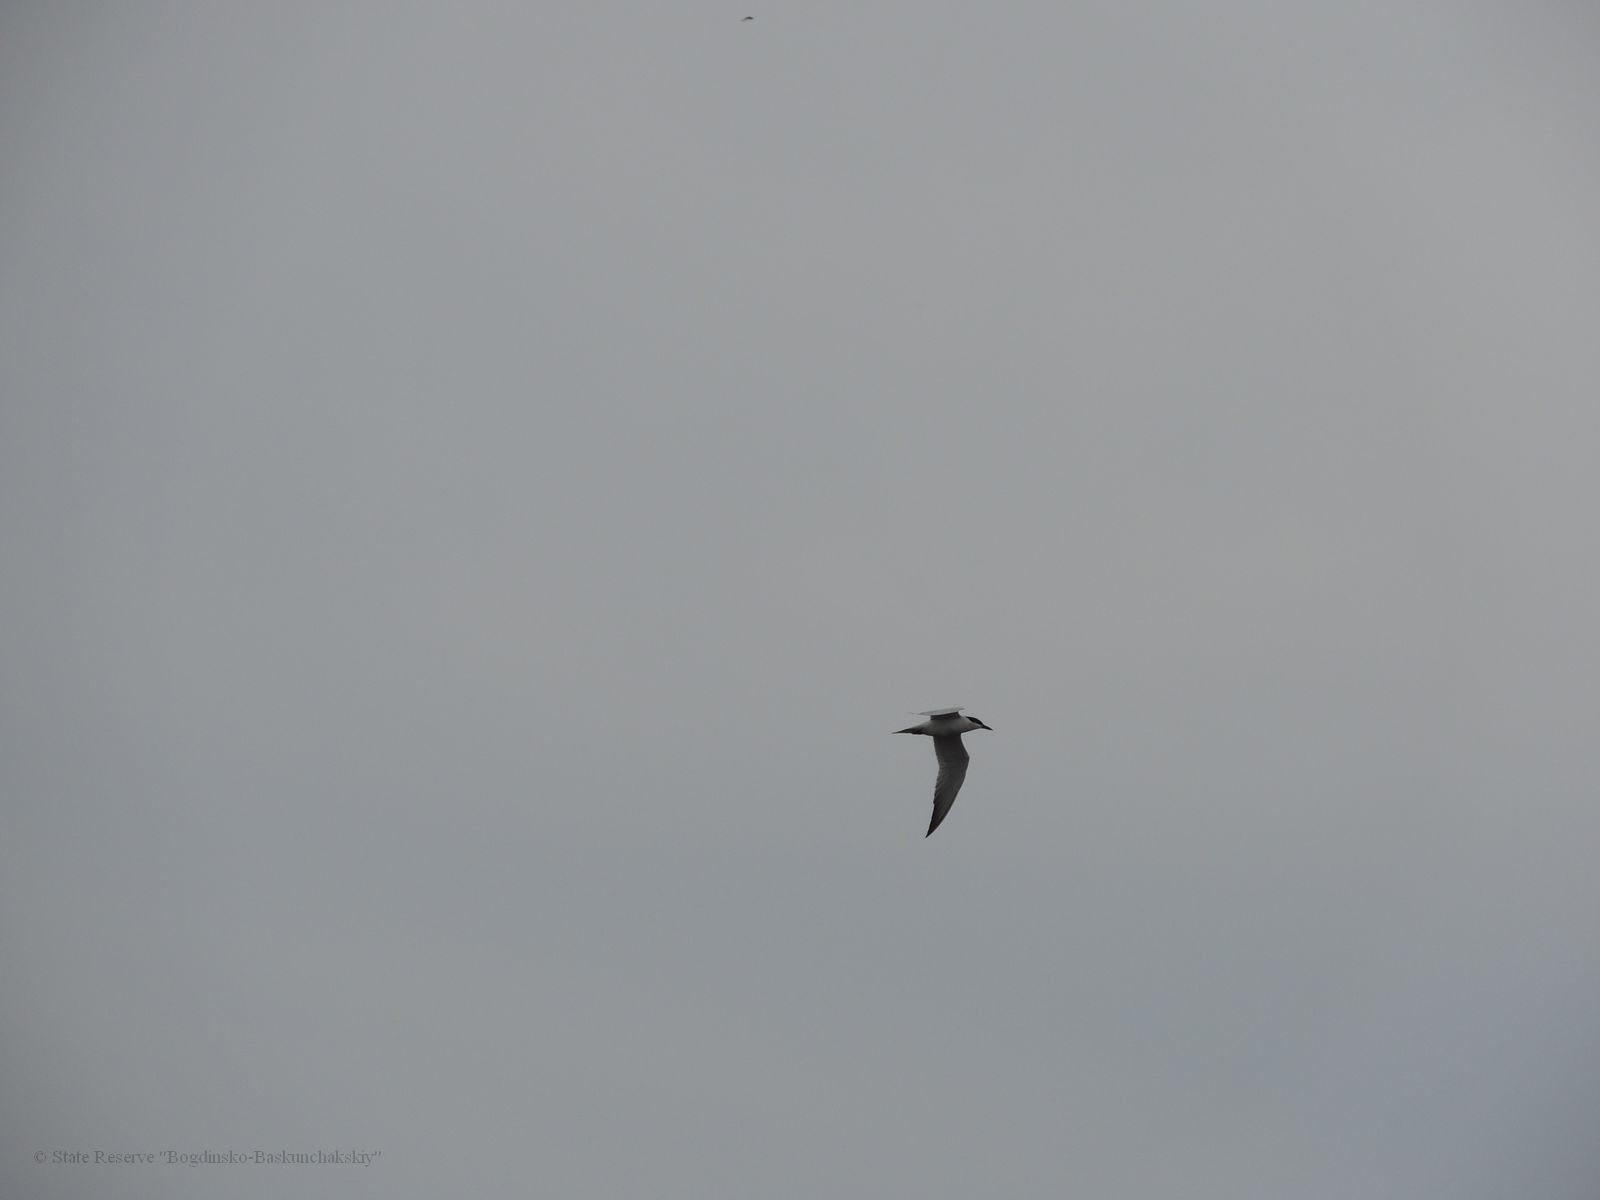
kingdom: Animalia
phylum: Chordata
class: Aves
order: Charadriiformes
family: Laridae
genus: Sterna
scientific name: Sterna hirundo
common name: Common tern
